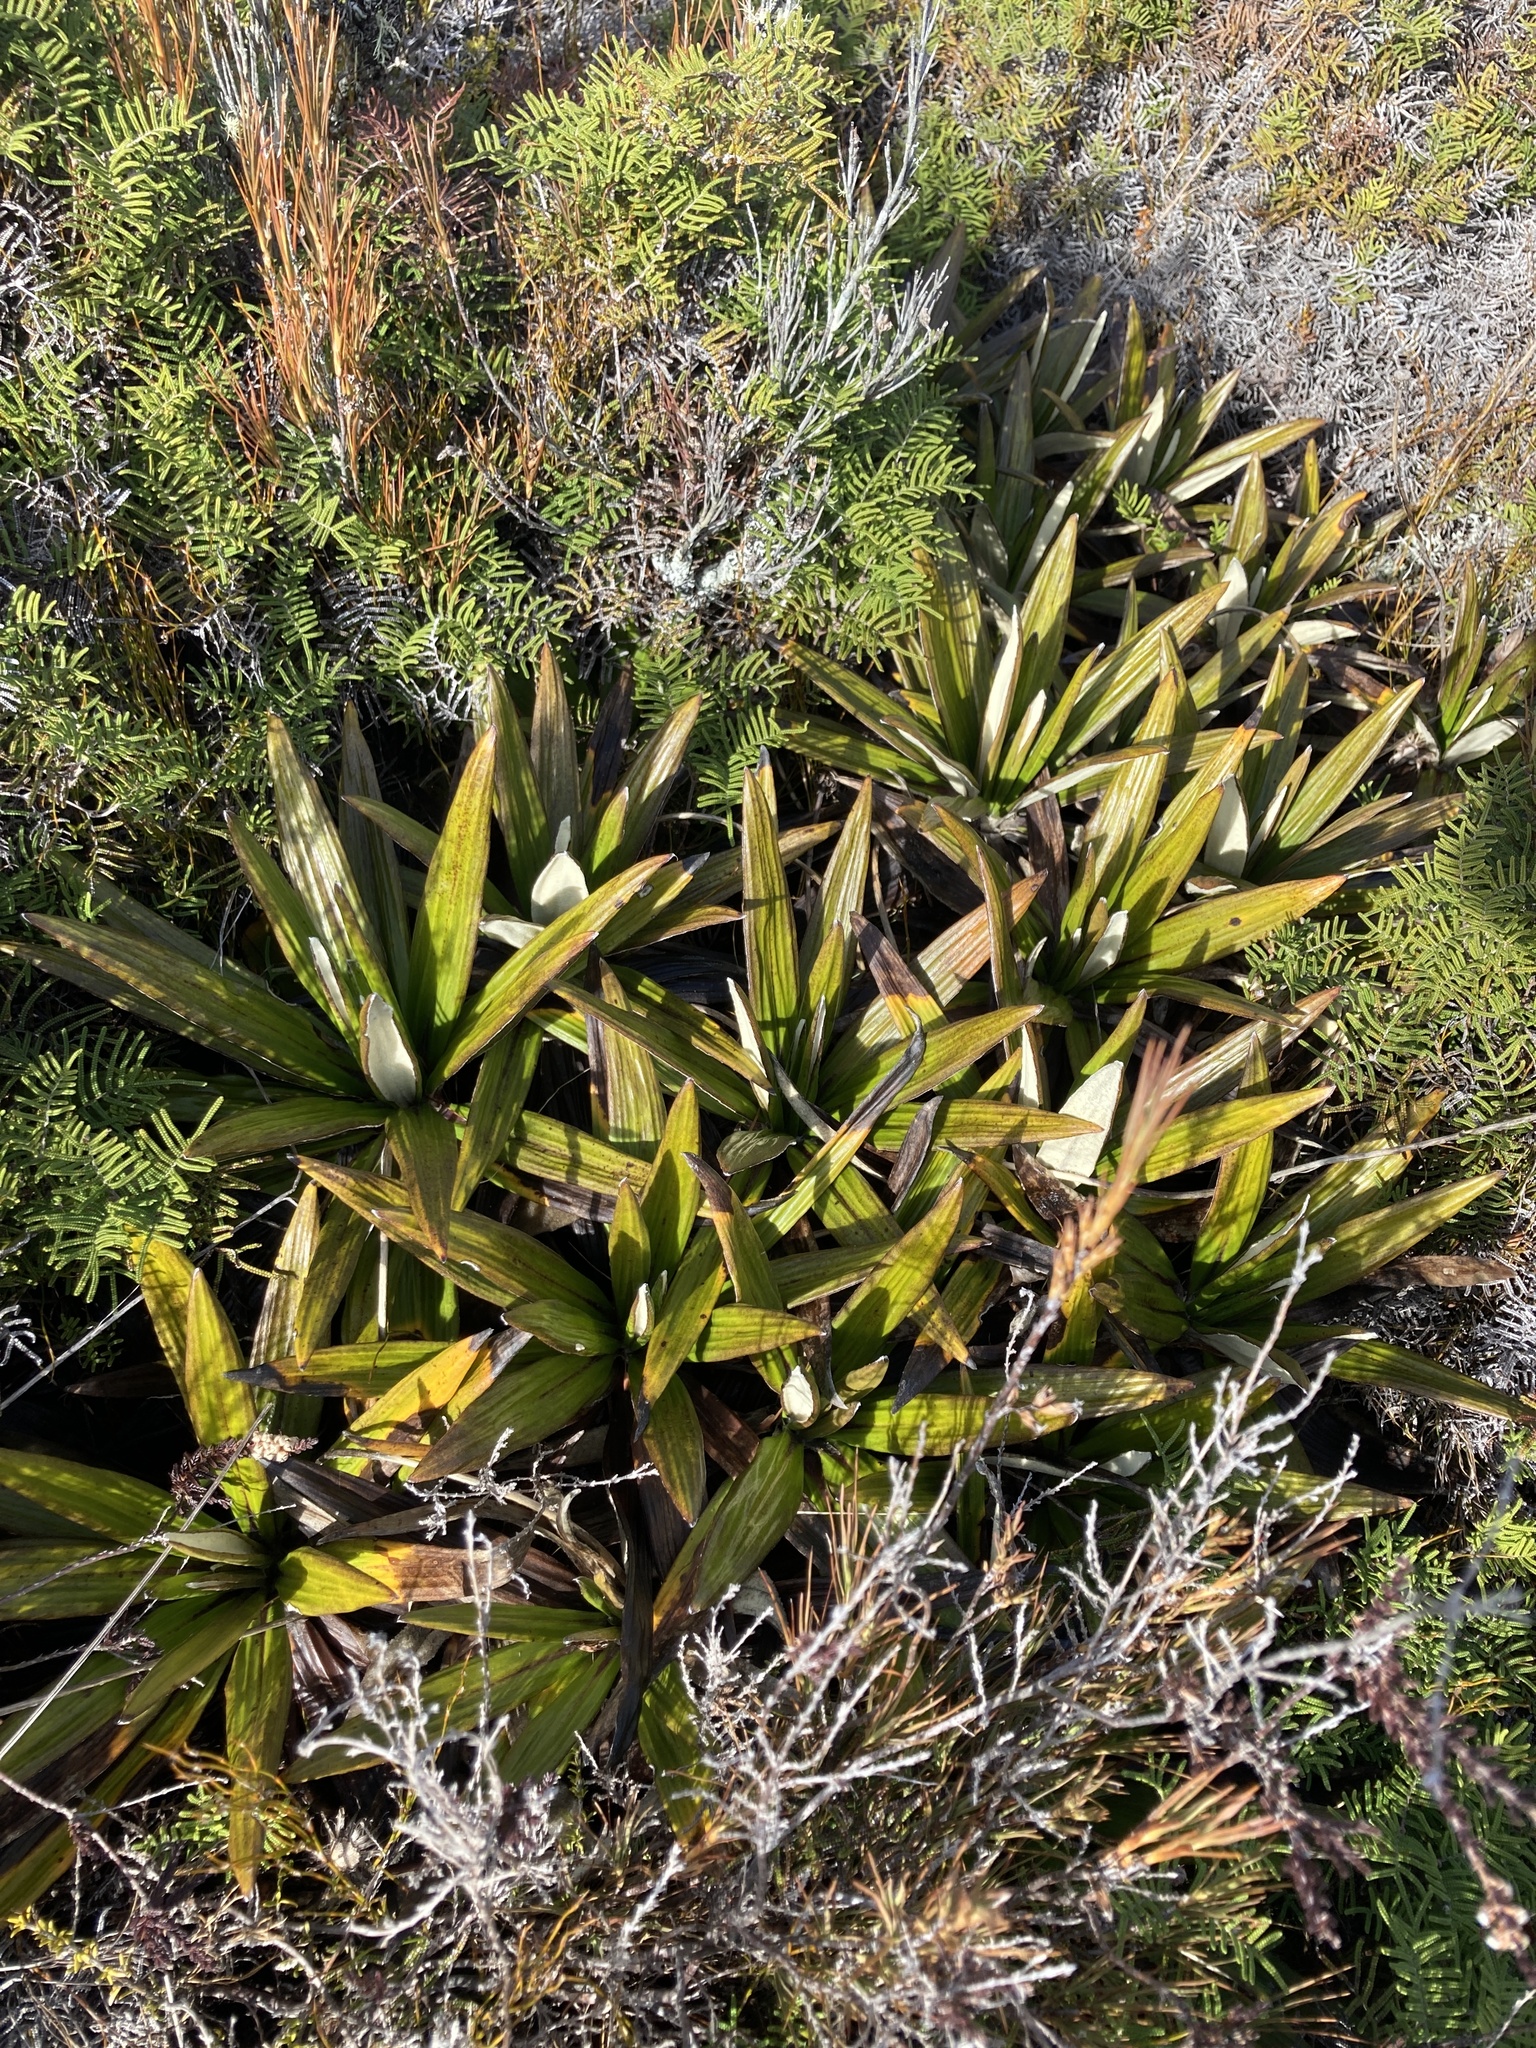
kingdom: Plantae
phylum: Tracheophyta
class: Magnoliopsida
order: Asterales
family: Asteraceae
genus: Celmisia
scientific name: Celmisia spectabilis
